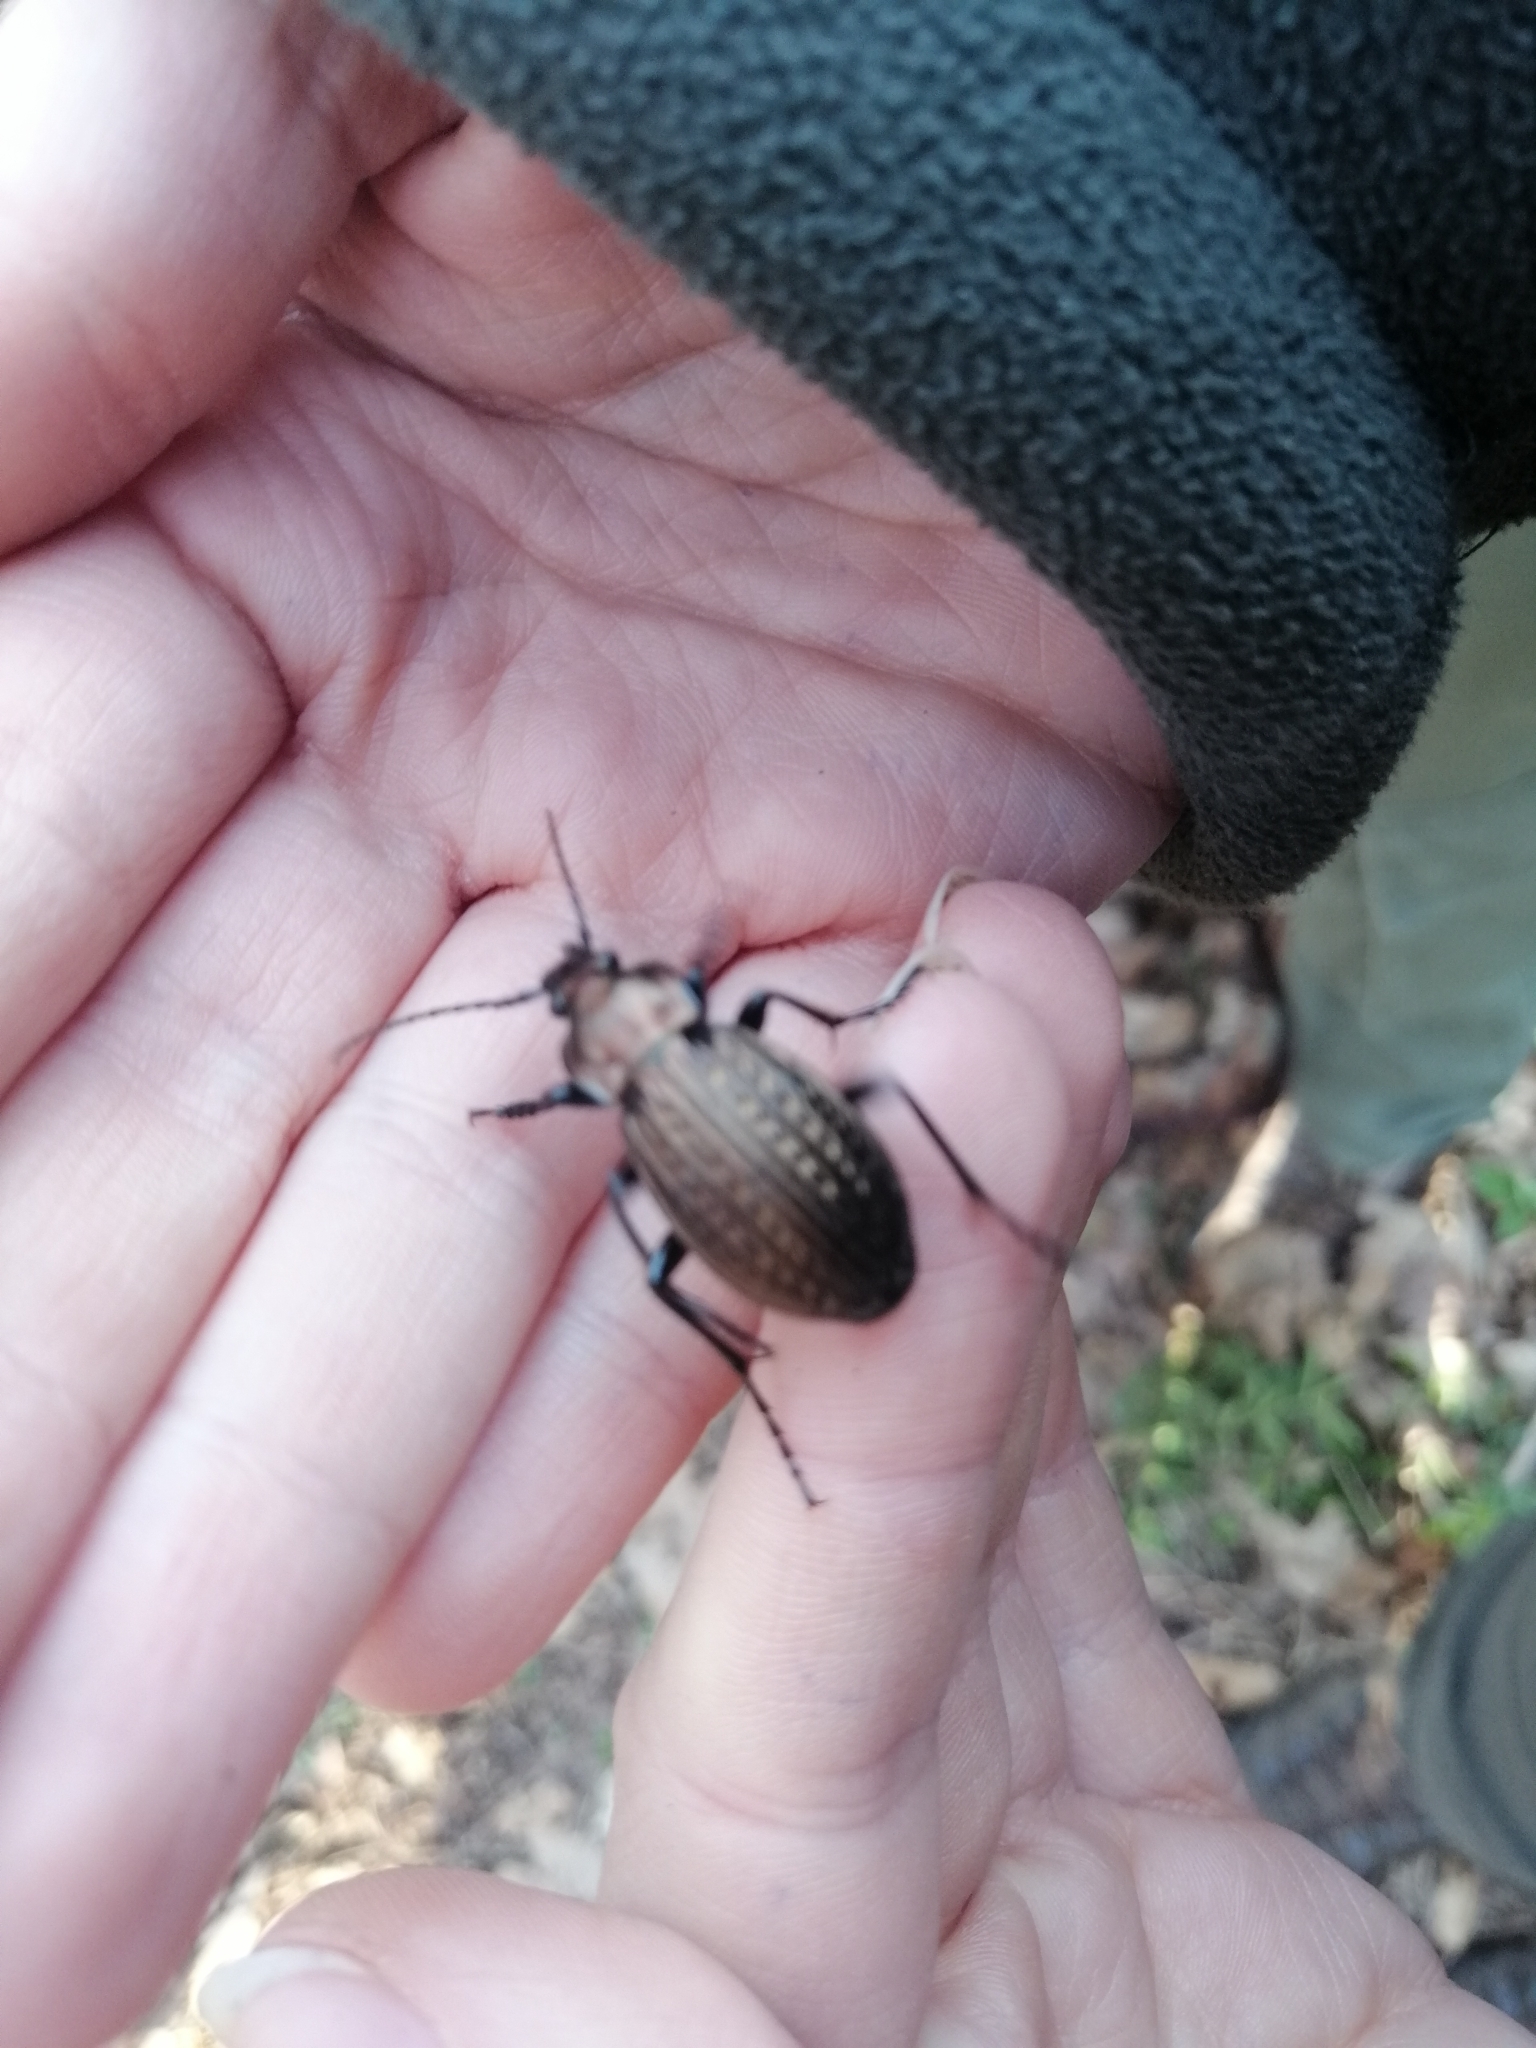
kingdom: Animalia
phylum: Arthropoda
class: Insecta
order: Coleoptera
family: Carabidae
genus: Carabus
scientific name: Carabus granulatus
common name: Granulate ground beetle
